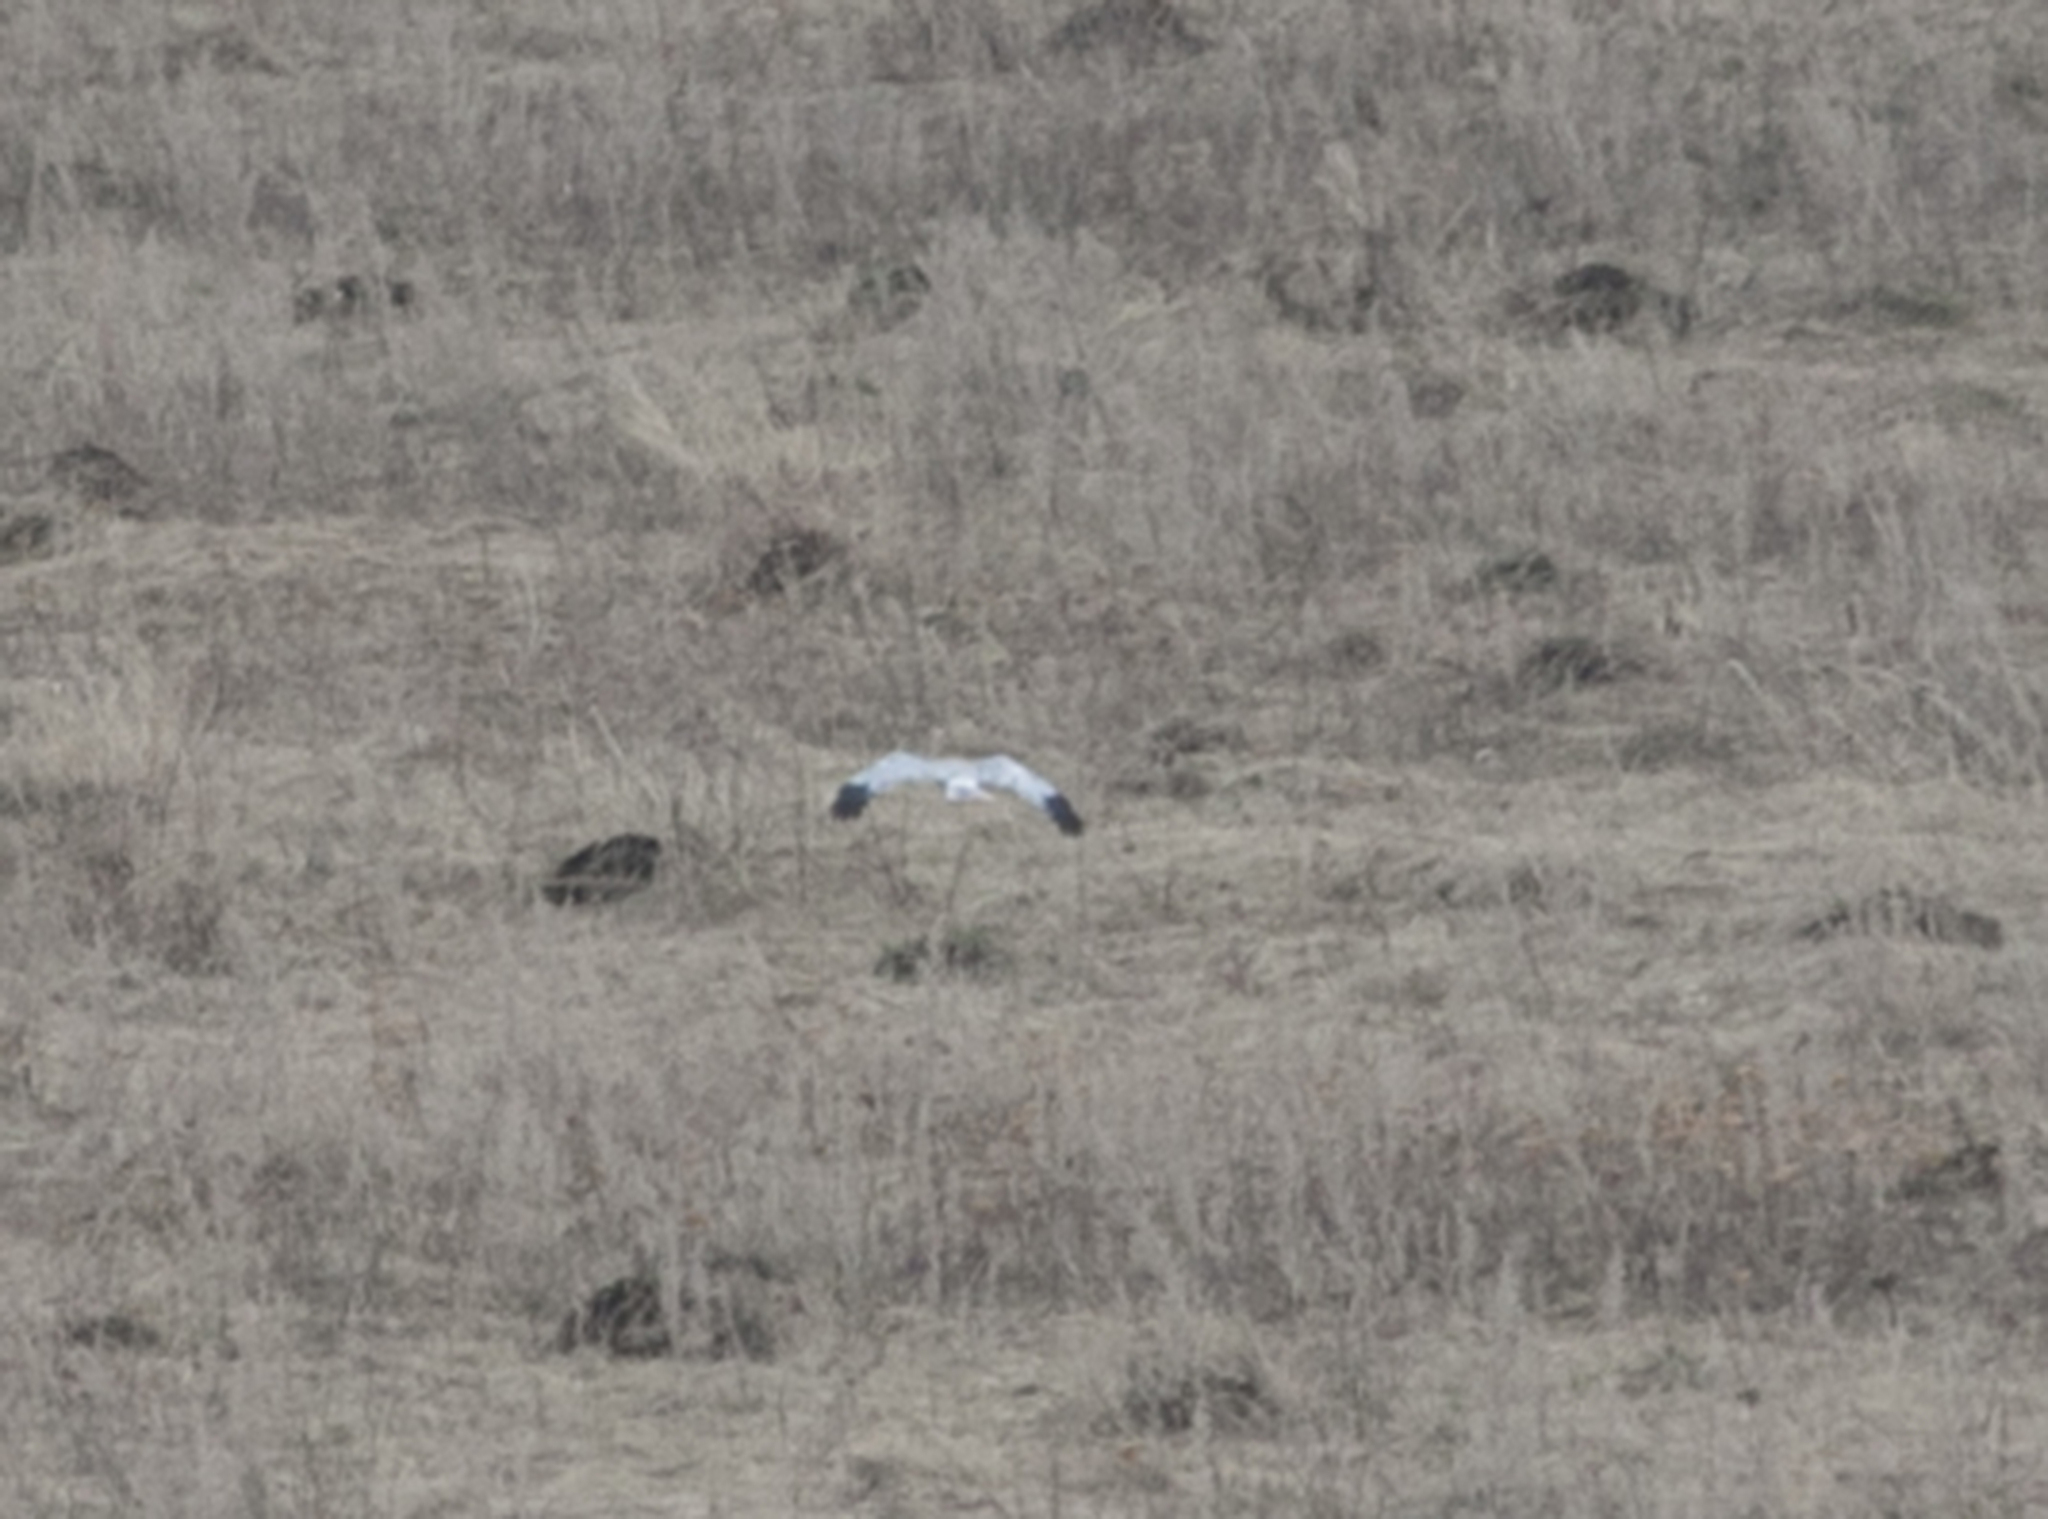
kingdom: Animalia
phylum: Chordata
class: Aves
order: Accipitriformes
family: Accipitridae
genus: Circus
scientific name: Circus cyaneus
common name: Hen harrier
